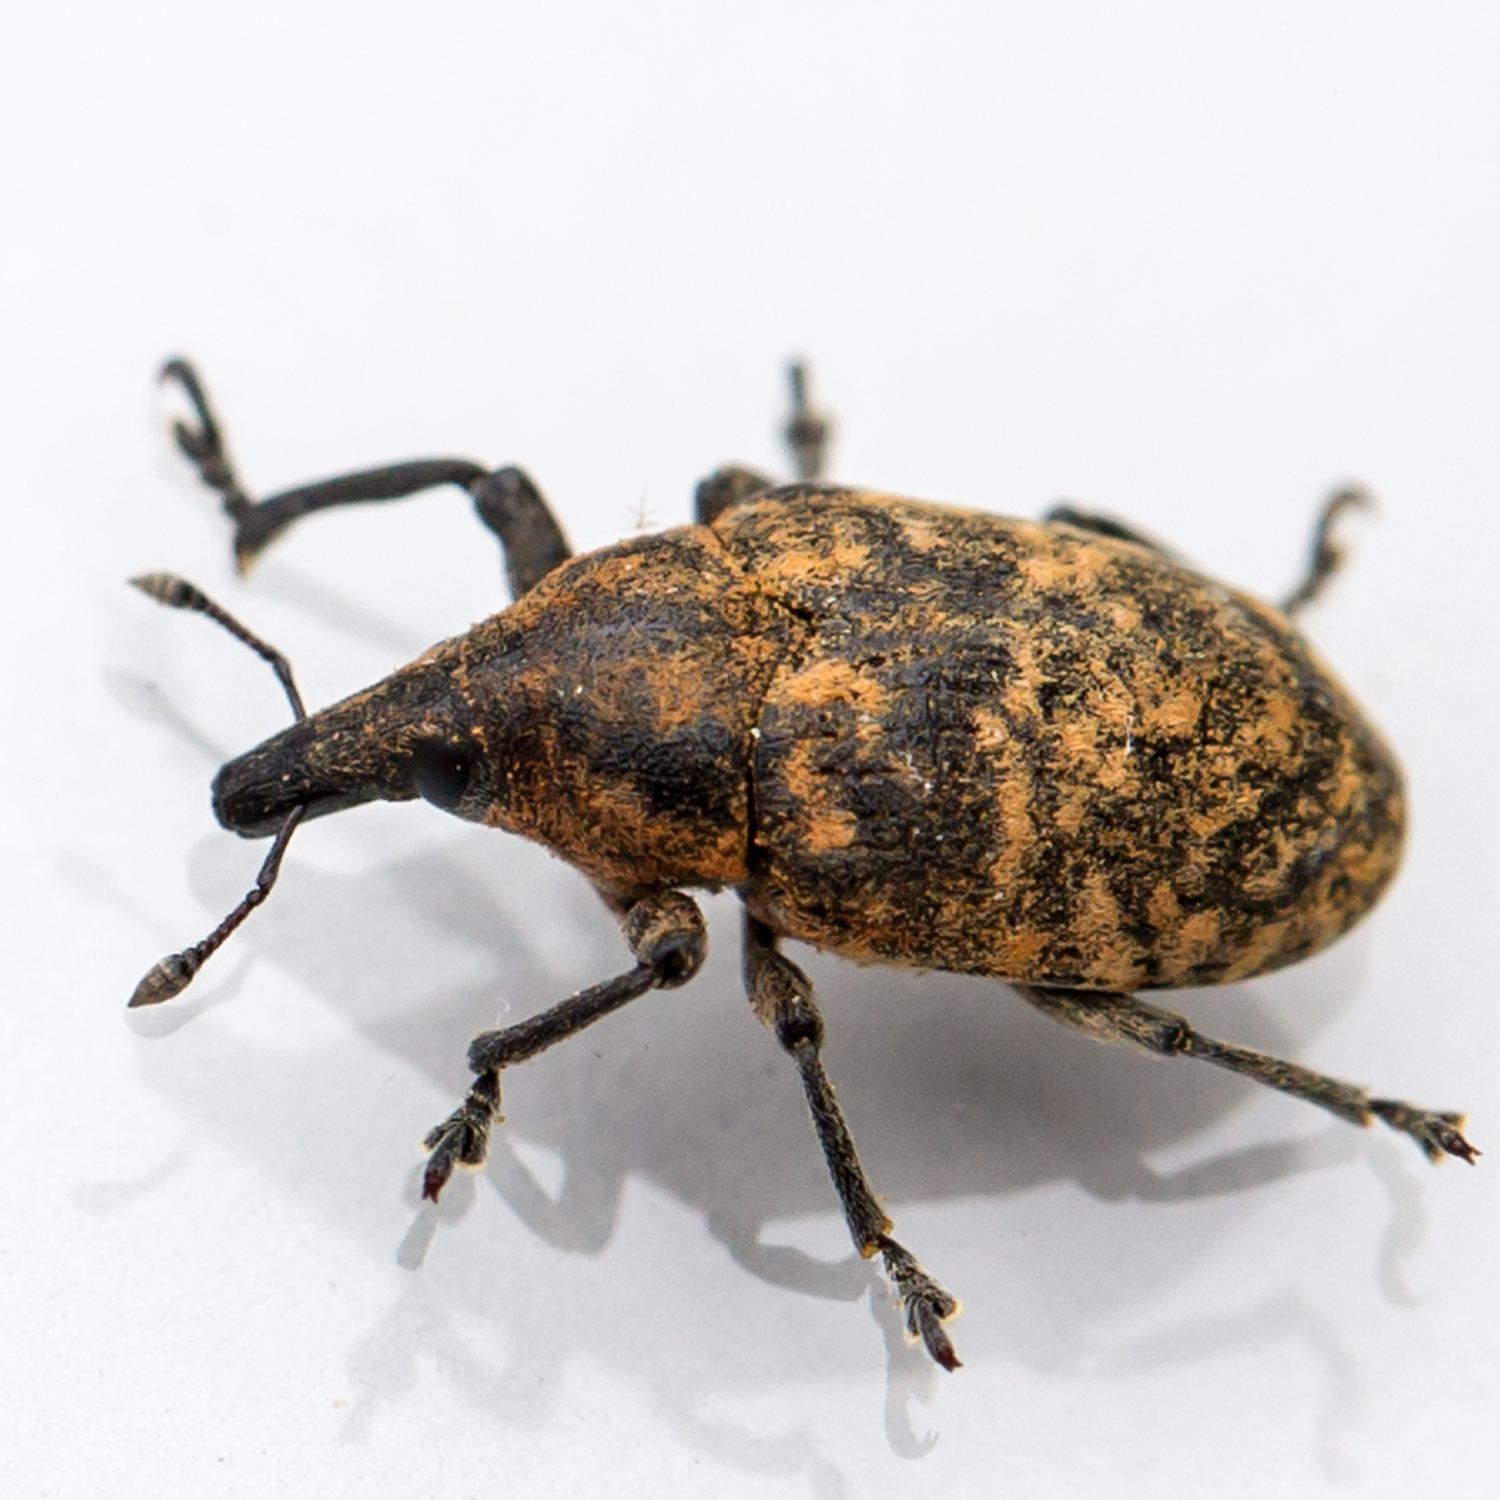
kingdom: Animalia
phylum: Arthropoda
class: Insecta
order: Coleoptera
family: Curculionidae
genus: Larinus
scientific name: Larinus turbinatus
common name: Weevil
